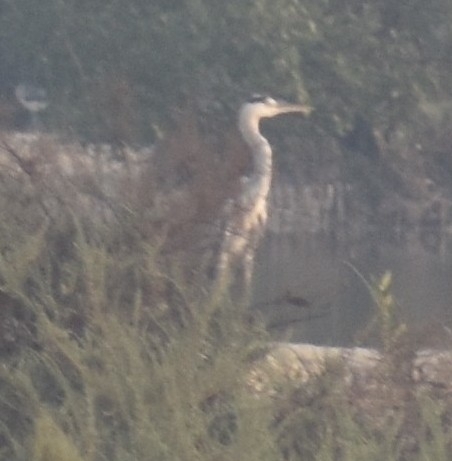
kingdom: Animalia
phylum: Chordata
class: Aves
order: Pelecaniformes
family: Ardeidae
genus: Ardea
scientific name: Ardea cinerea
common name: Grey heron
